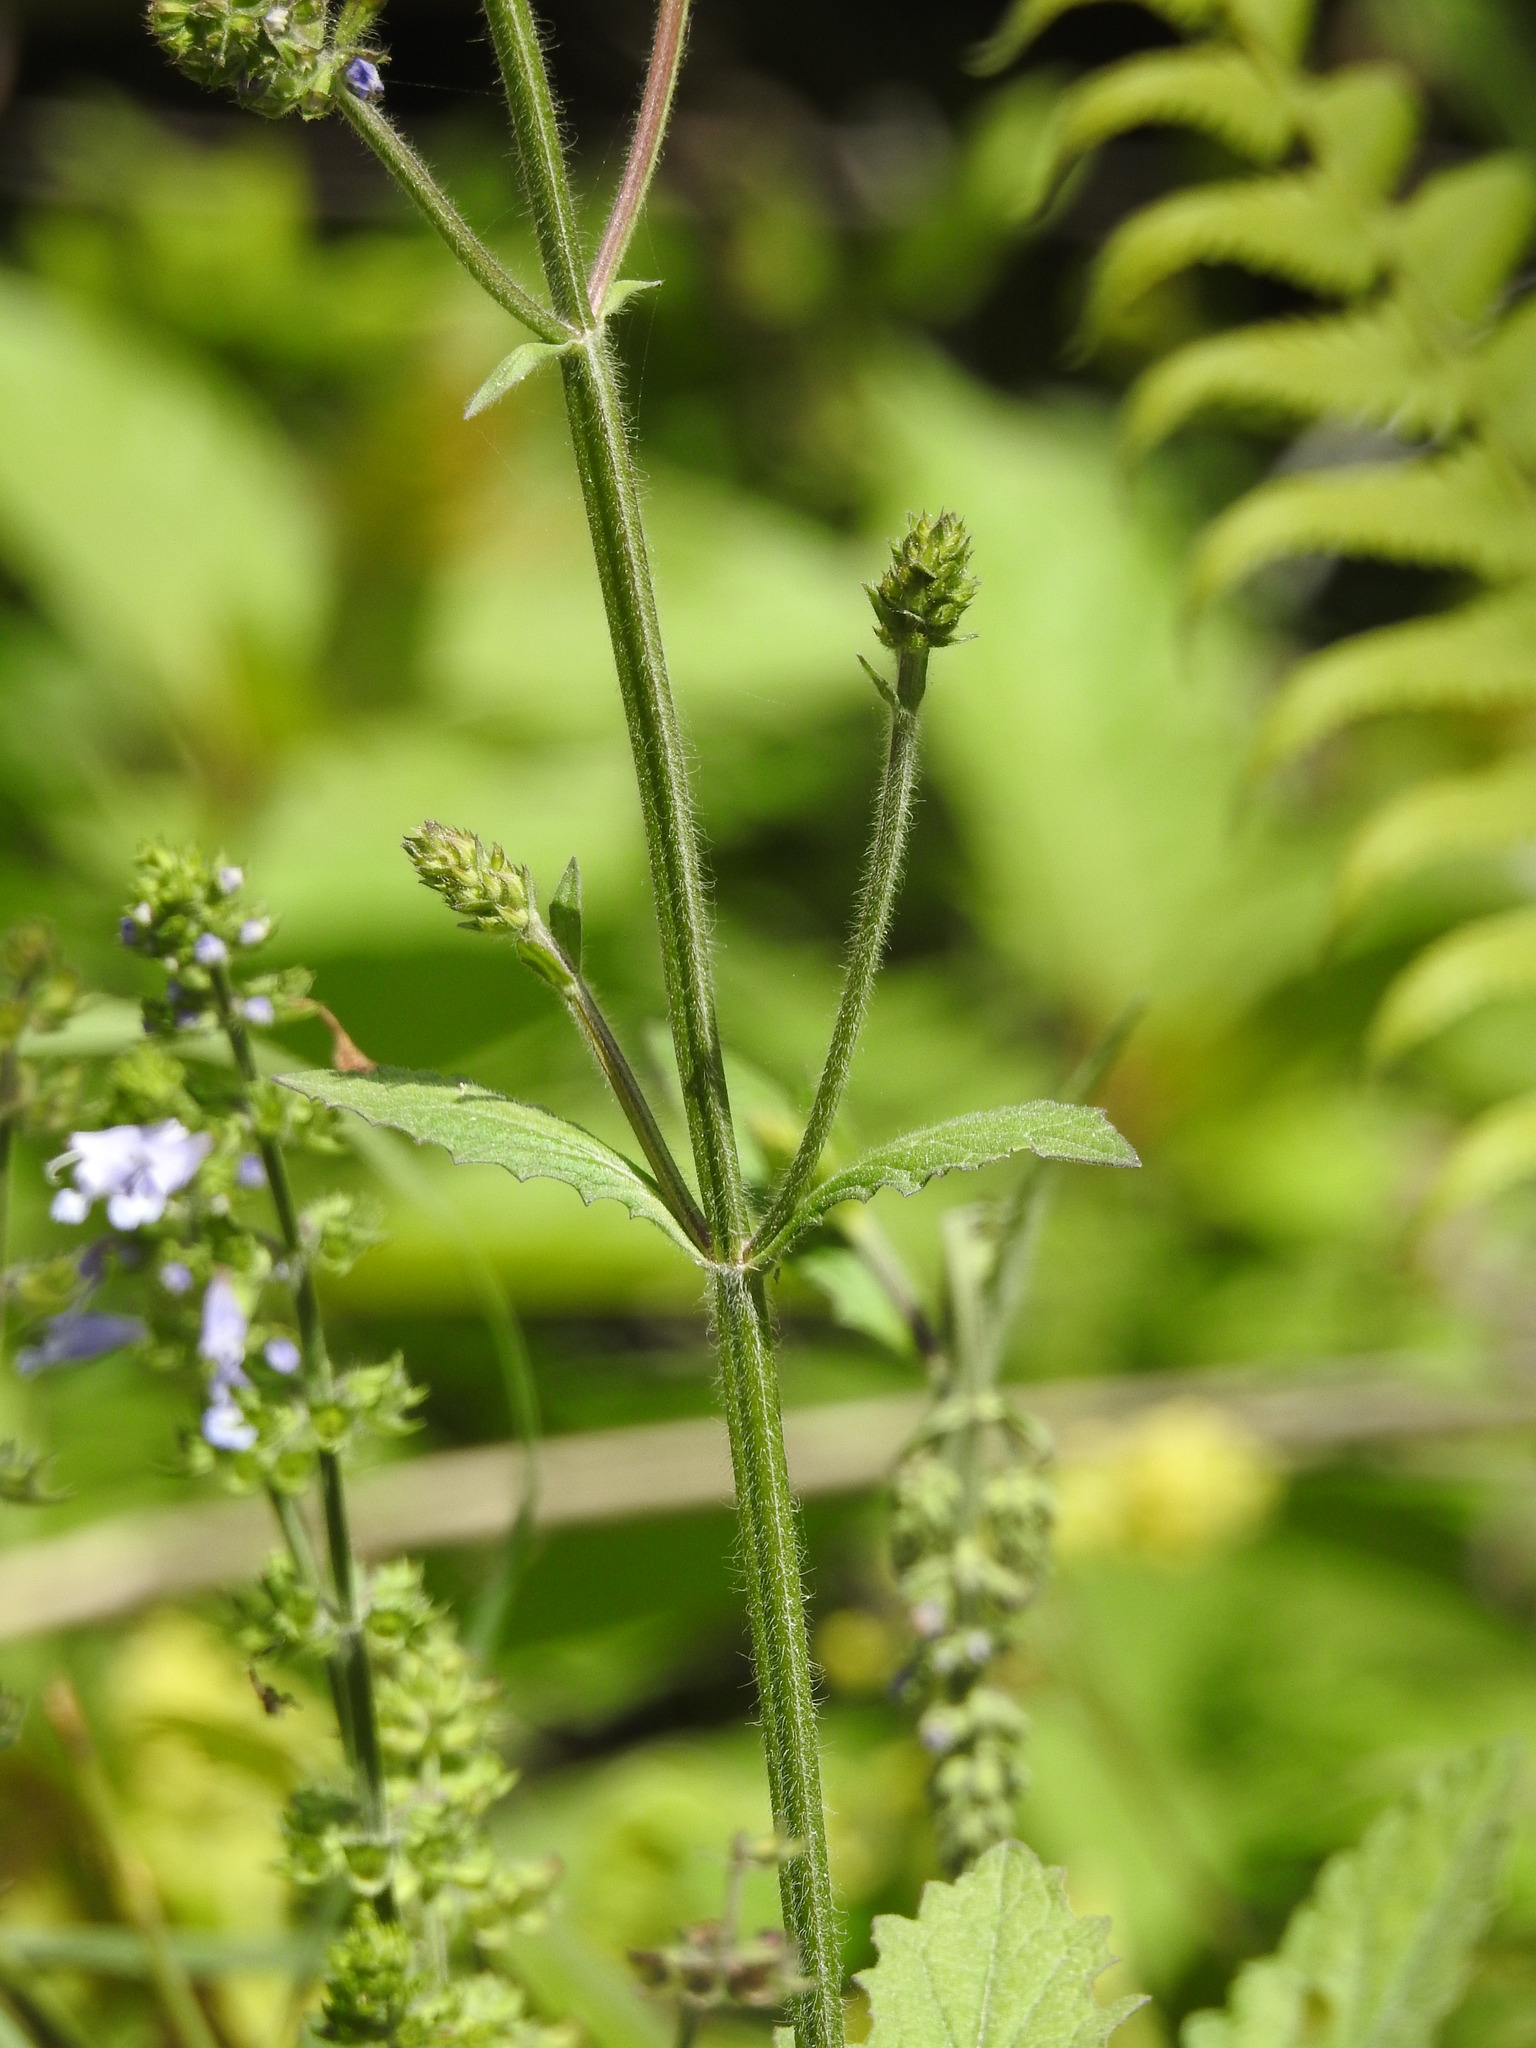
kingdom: Plantae
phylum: Tracheophyta
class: Magnoliopsida
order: Lamiales
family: Lamiaceae
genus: Salvia
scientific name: Salvia lyrata
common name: Cancerweed
